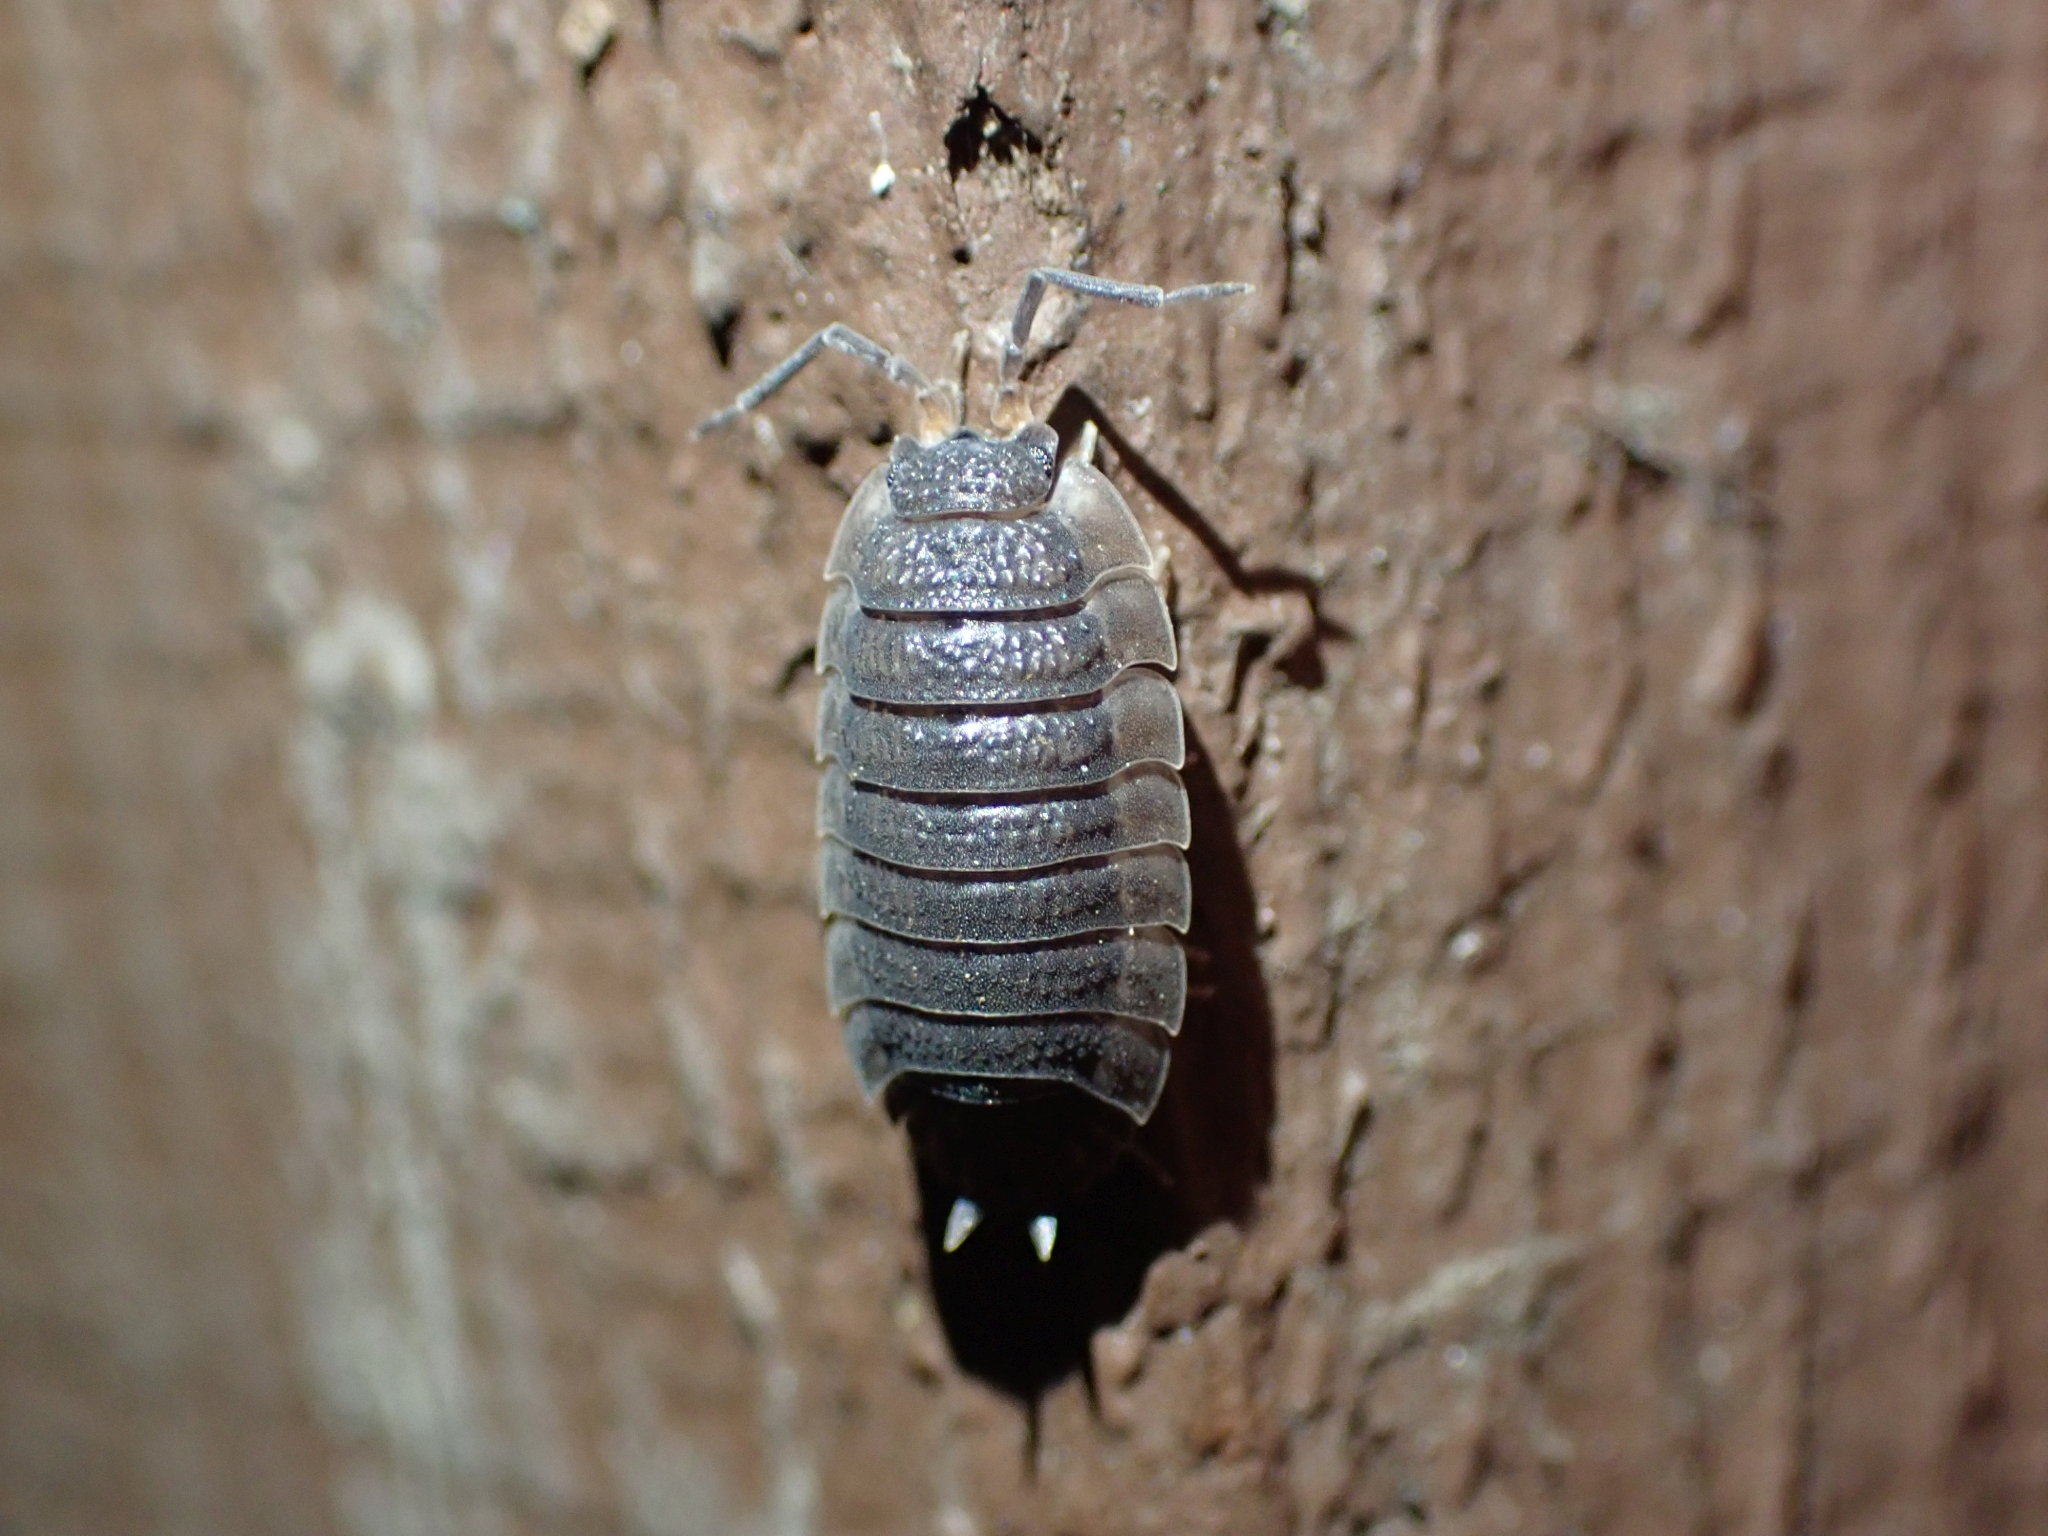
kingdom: Animalia
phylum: Arthropoda
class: Malacostraca
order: Isopoda
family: Porcellionidae
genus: Porcellio
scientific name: Porcellio scaber
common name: Common rough woodlouse
